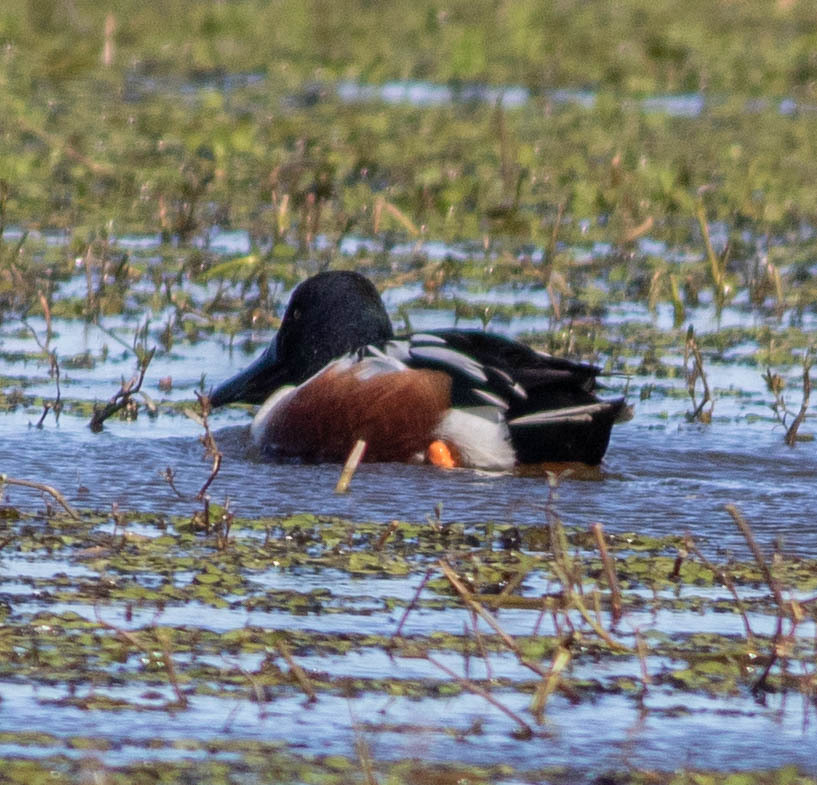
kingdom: Animalia
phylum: Chordata
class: Aves
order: Anseriformes
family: Anatidae
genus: Spatula
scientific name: Spatula clypeata
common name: Northern shoveler
